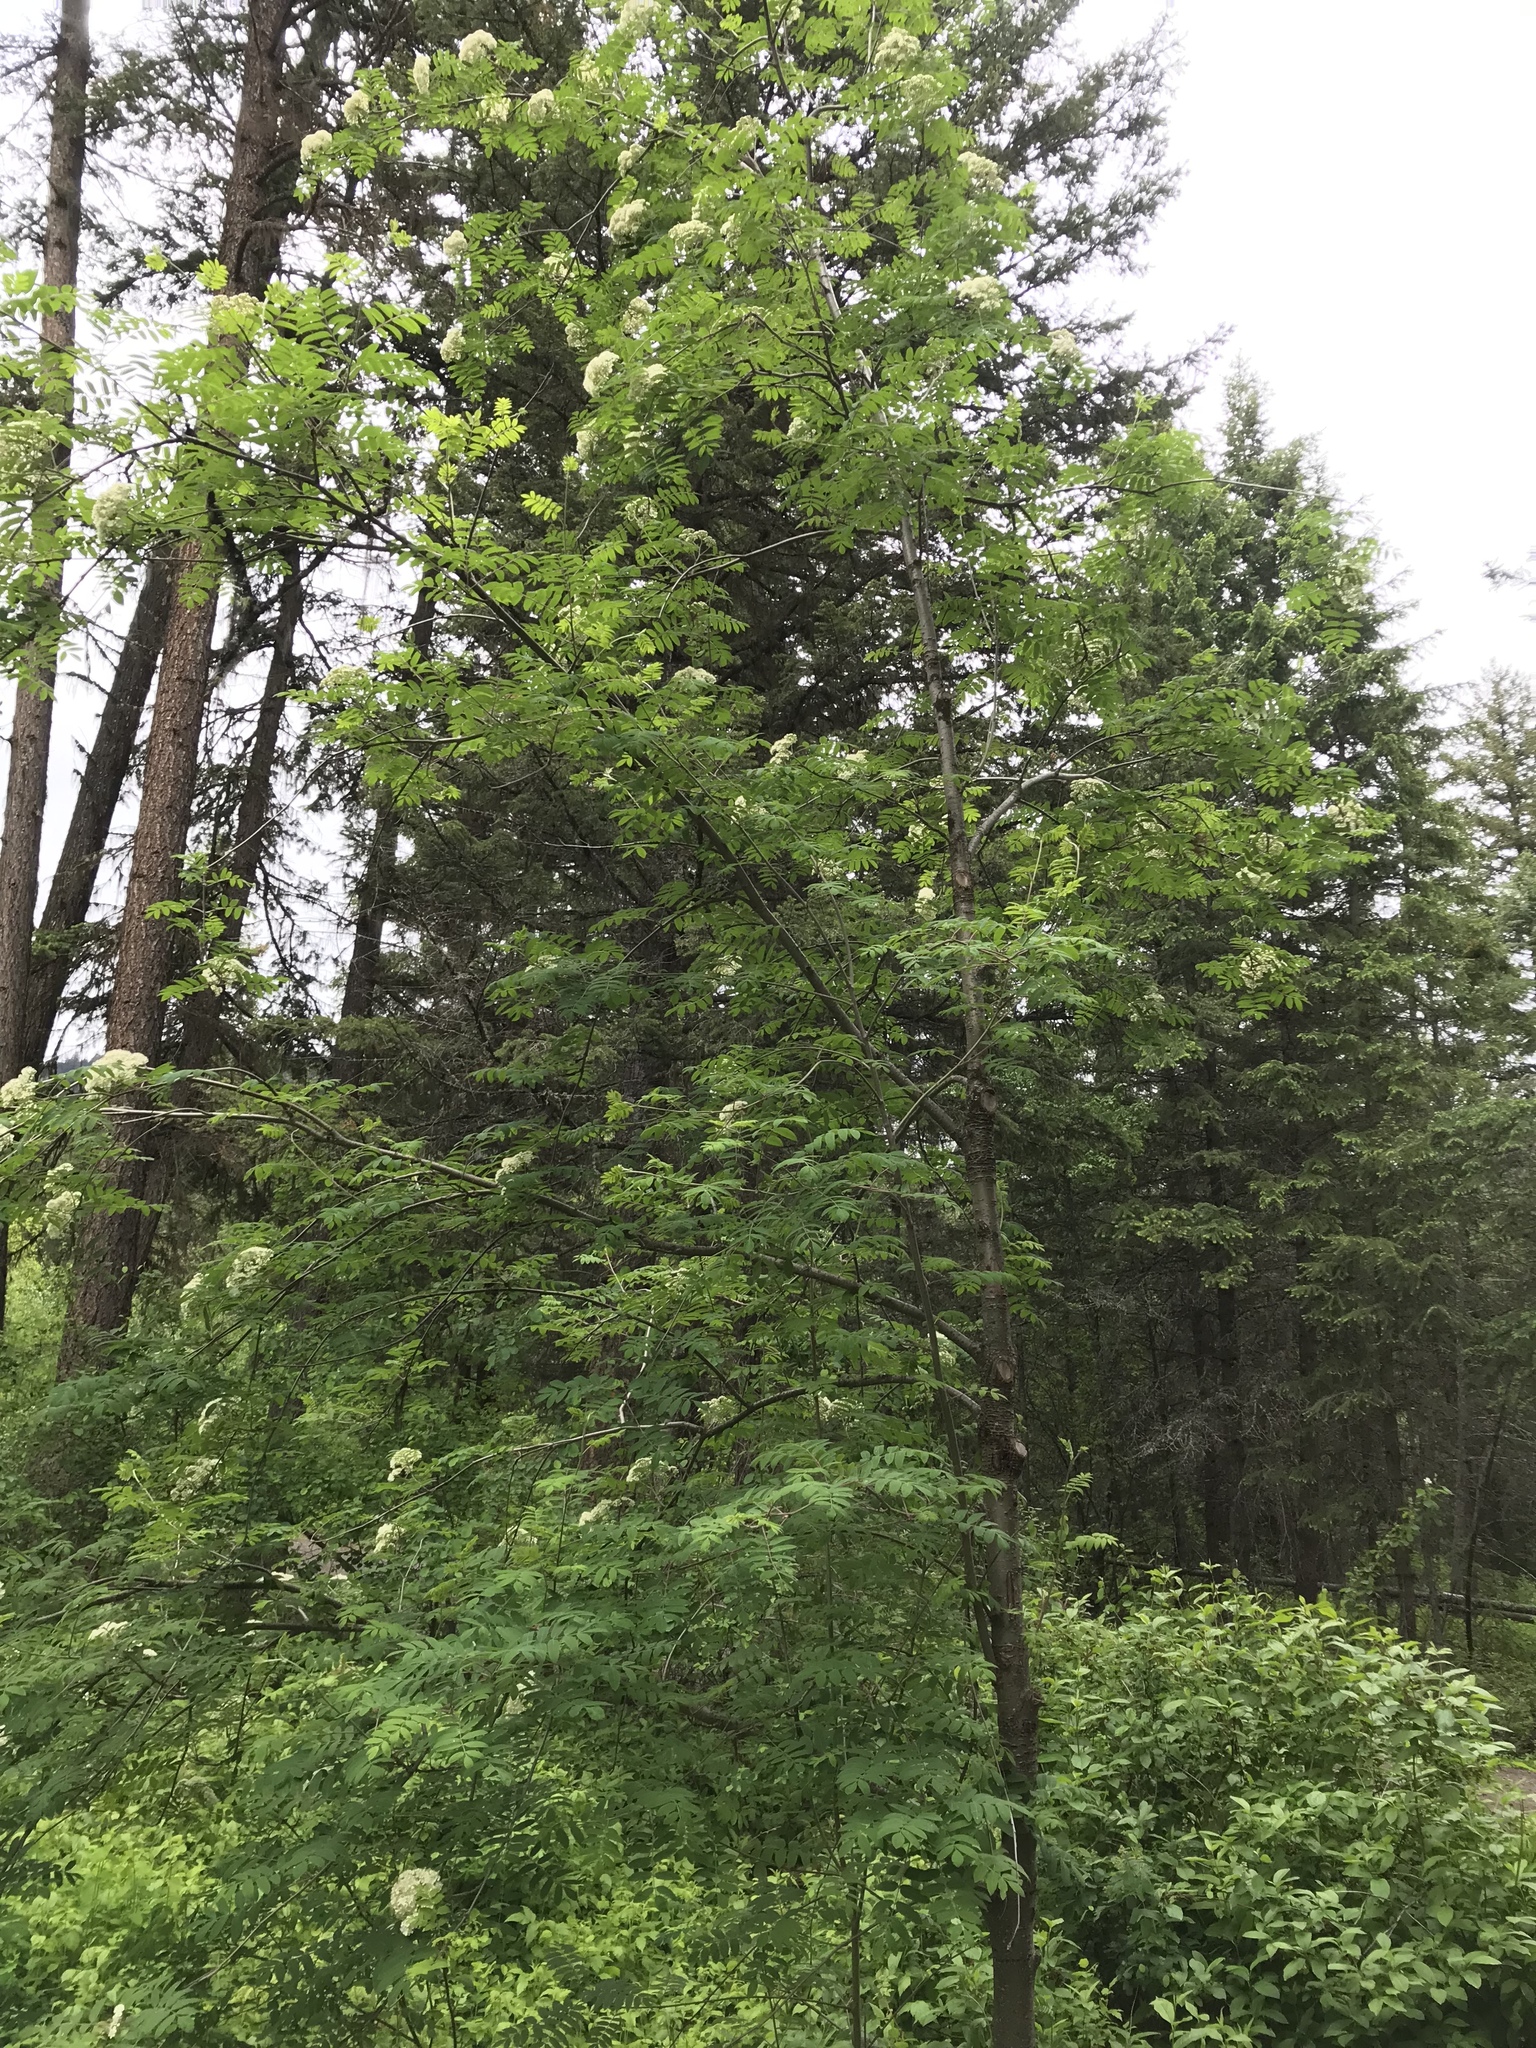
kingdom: Plantae
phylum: Tracheophyta
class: Magnoliopsida
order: Rosales
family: Rosaceae
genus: Sorbus
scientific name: Sorbus aucuparia
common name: Rowan
